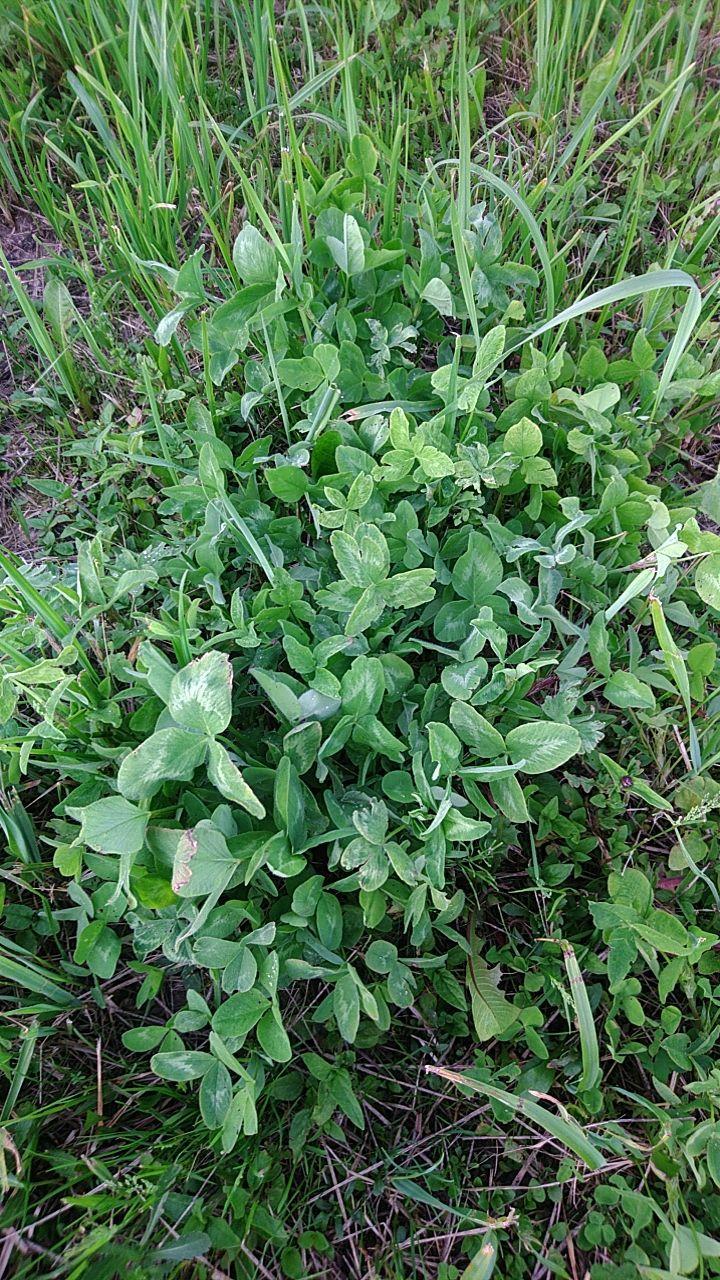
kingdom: Plantae
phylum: Tracheophyta
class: Magnoliopsida
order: Fabales
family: Fabaceae
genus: Trifolium
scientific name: Trifolium pratense
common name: Red clover
